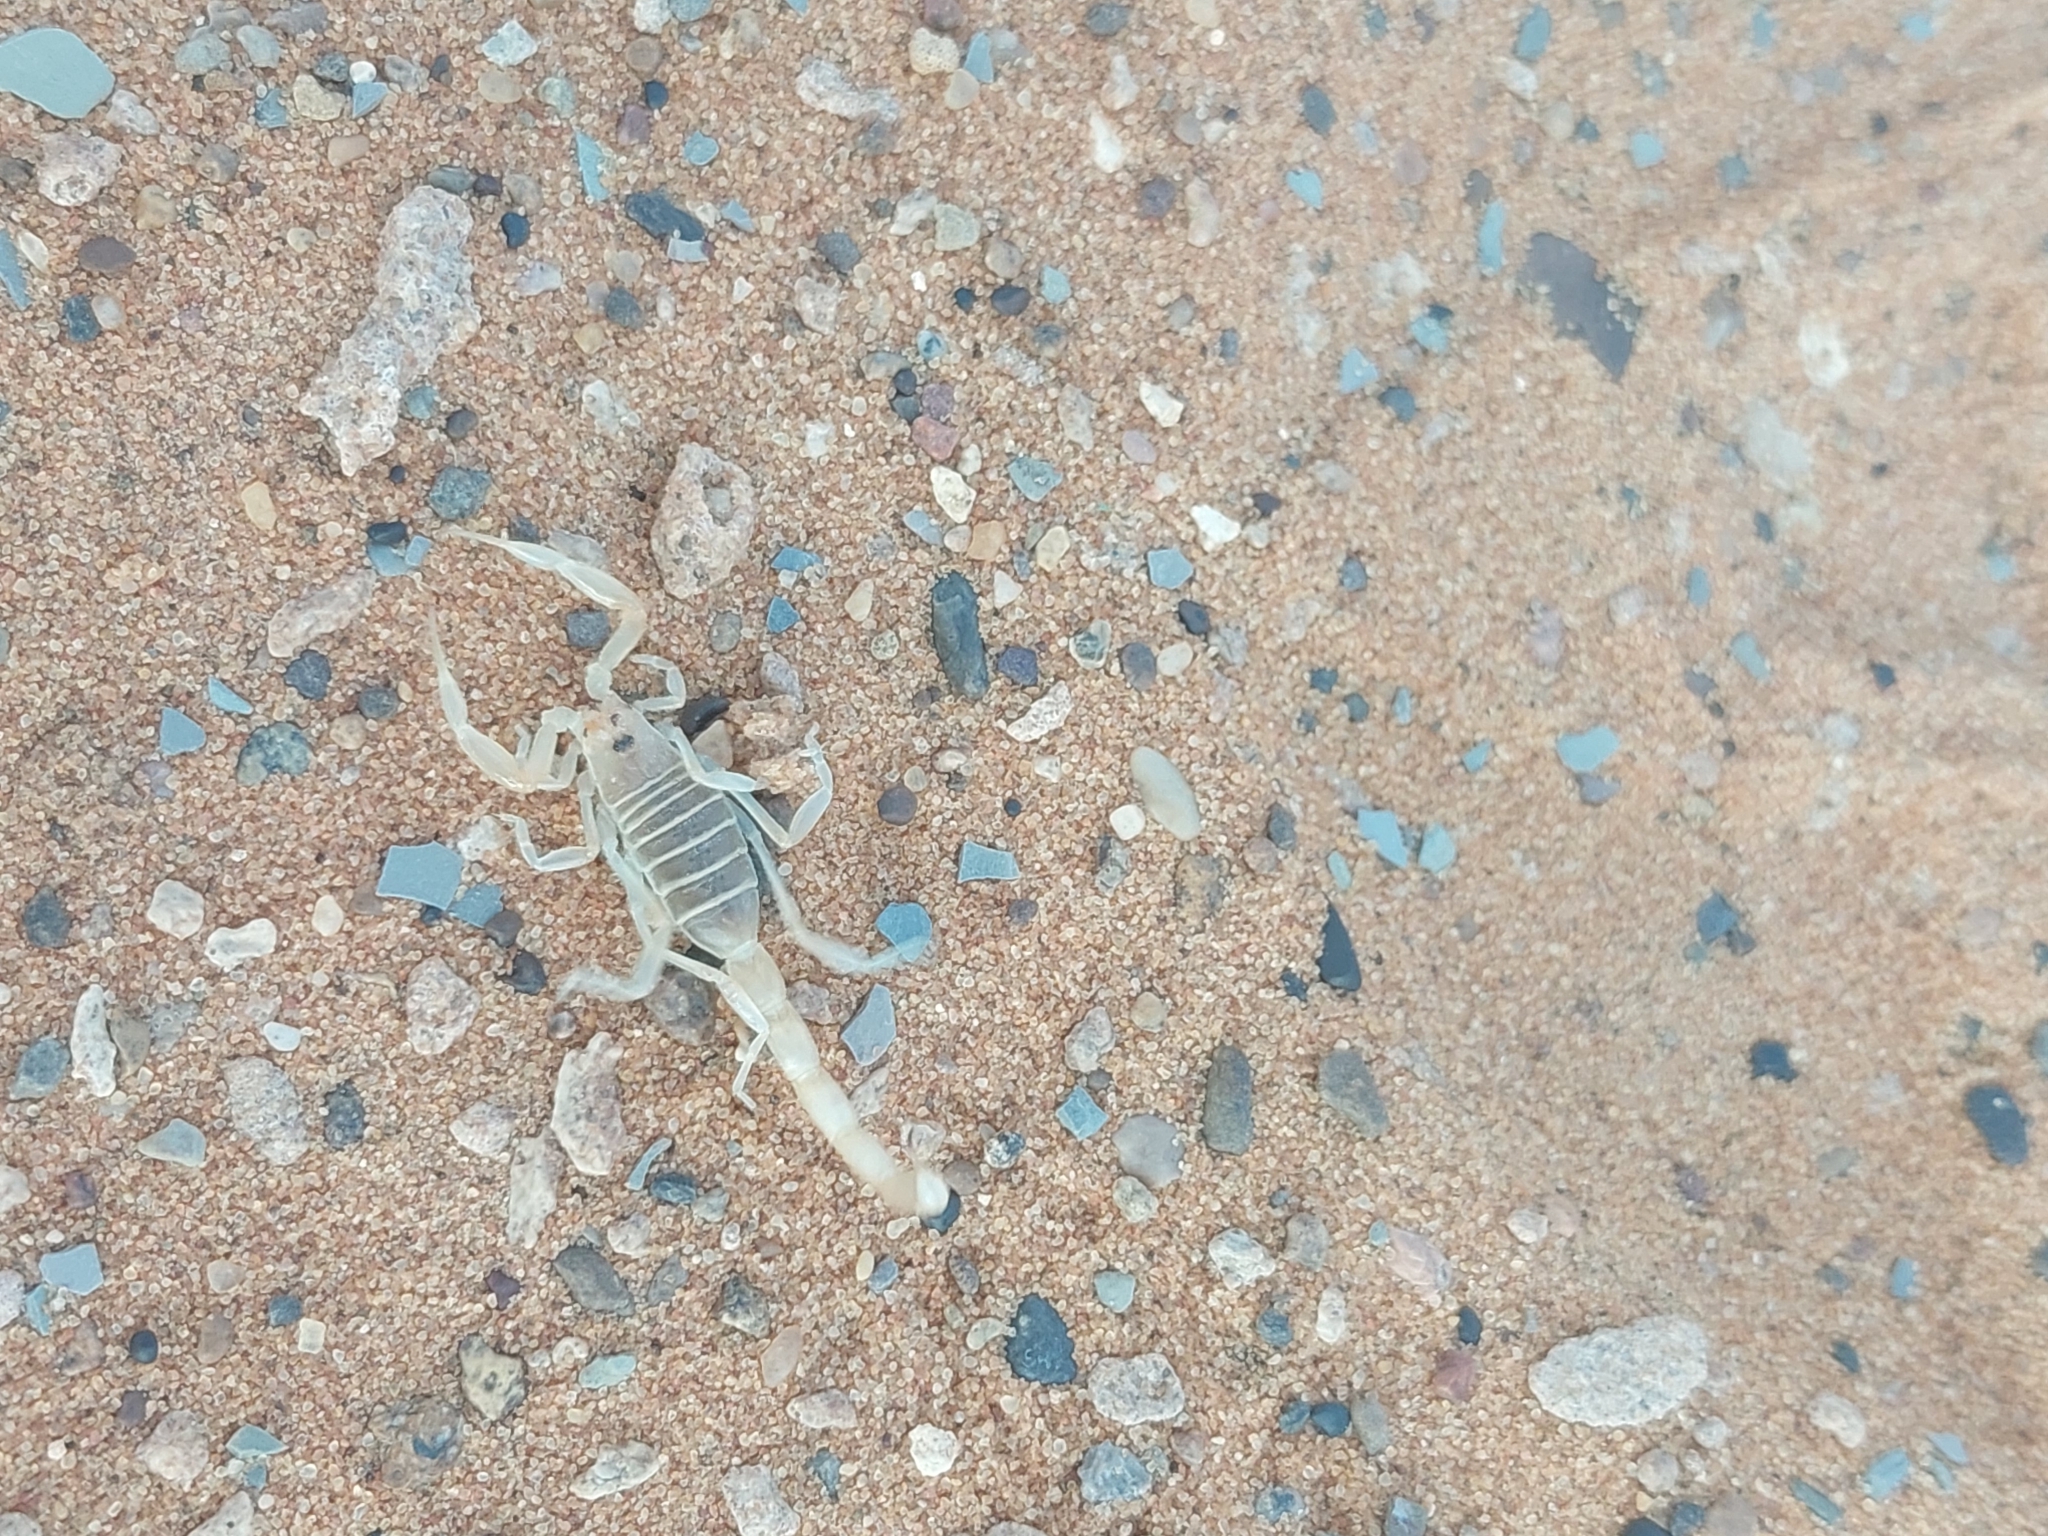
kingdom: Animalia
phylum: Arthropoda
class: Arachnida
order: Scorpiones
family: Buthidae
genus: Buthacus
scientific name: Buthacus ziegleri
